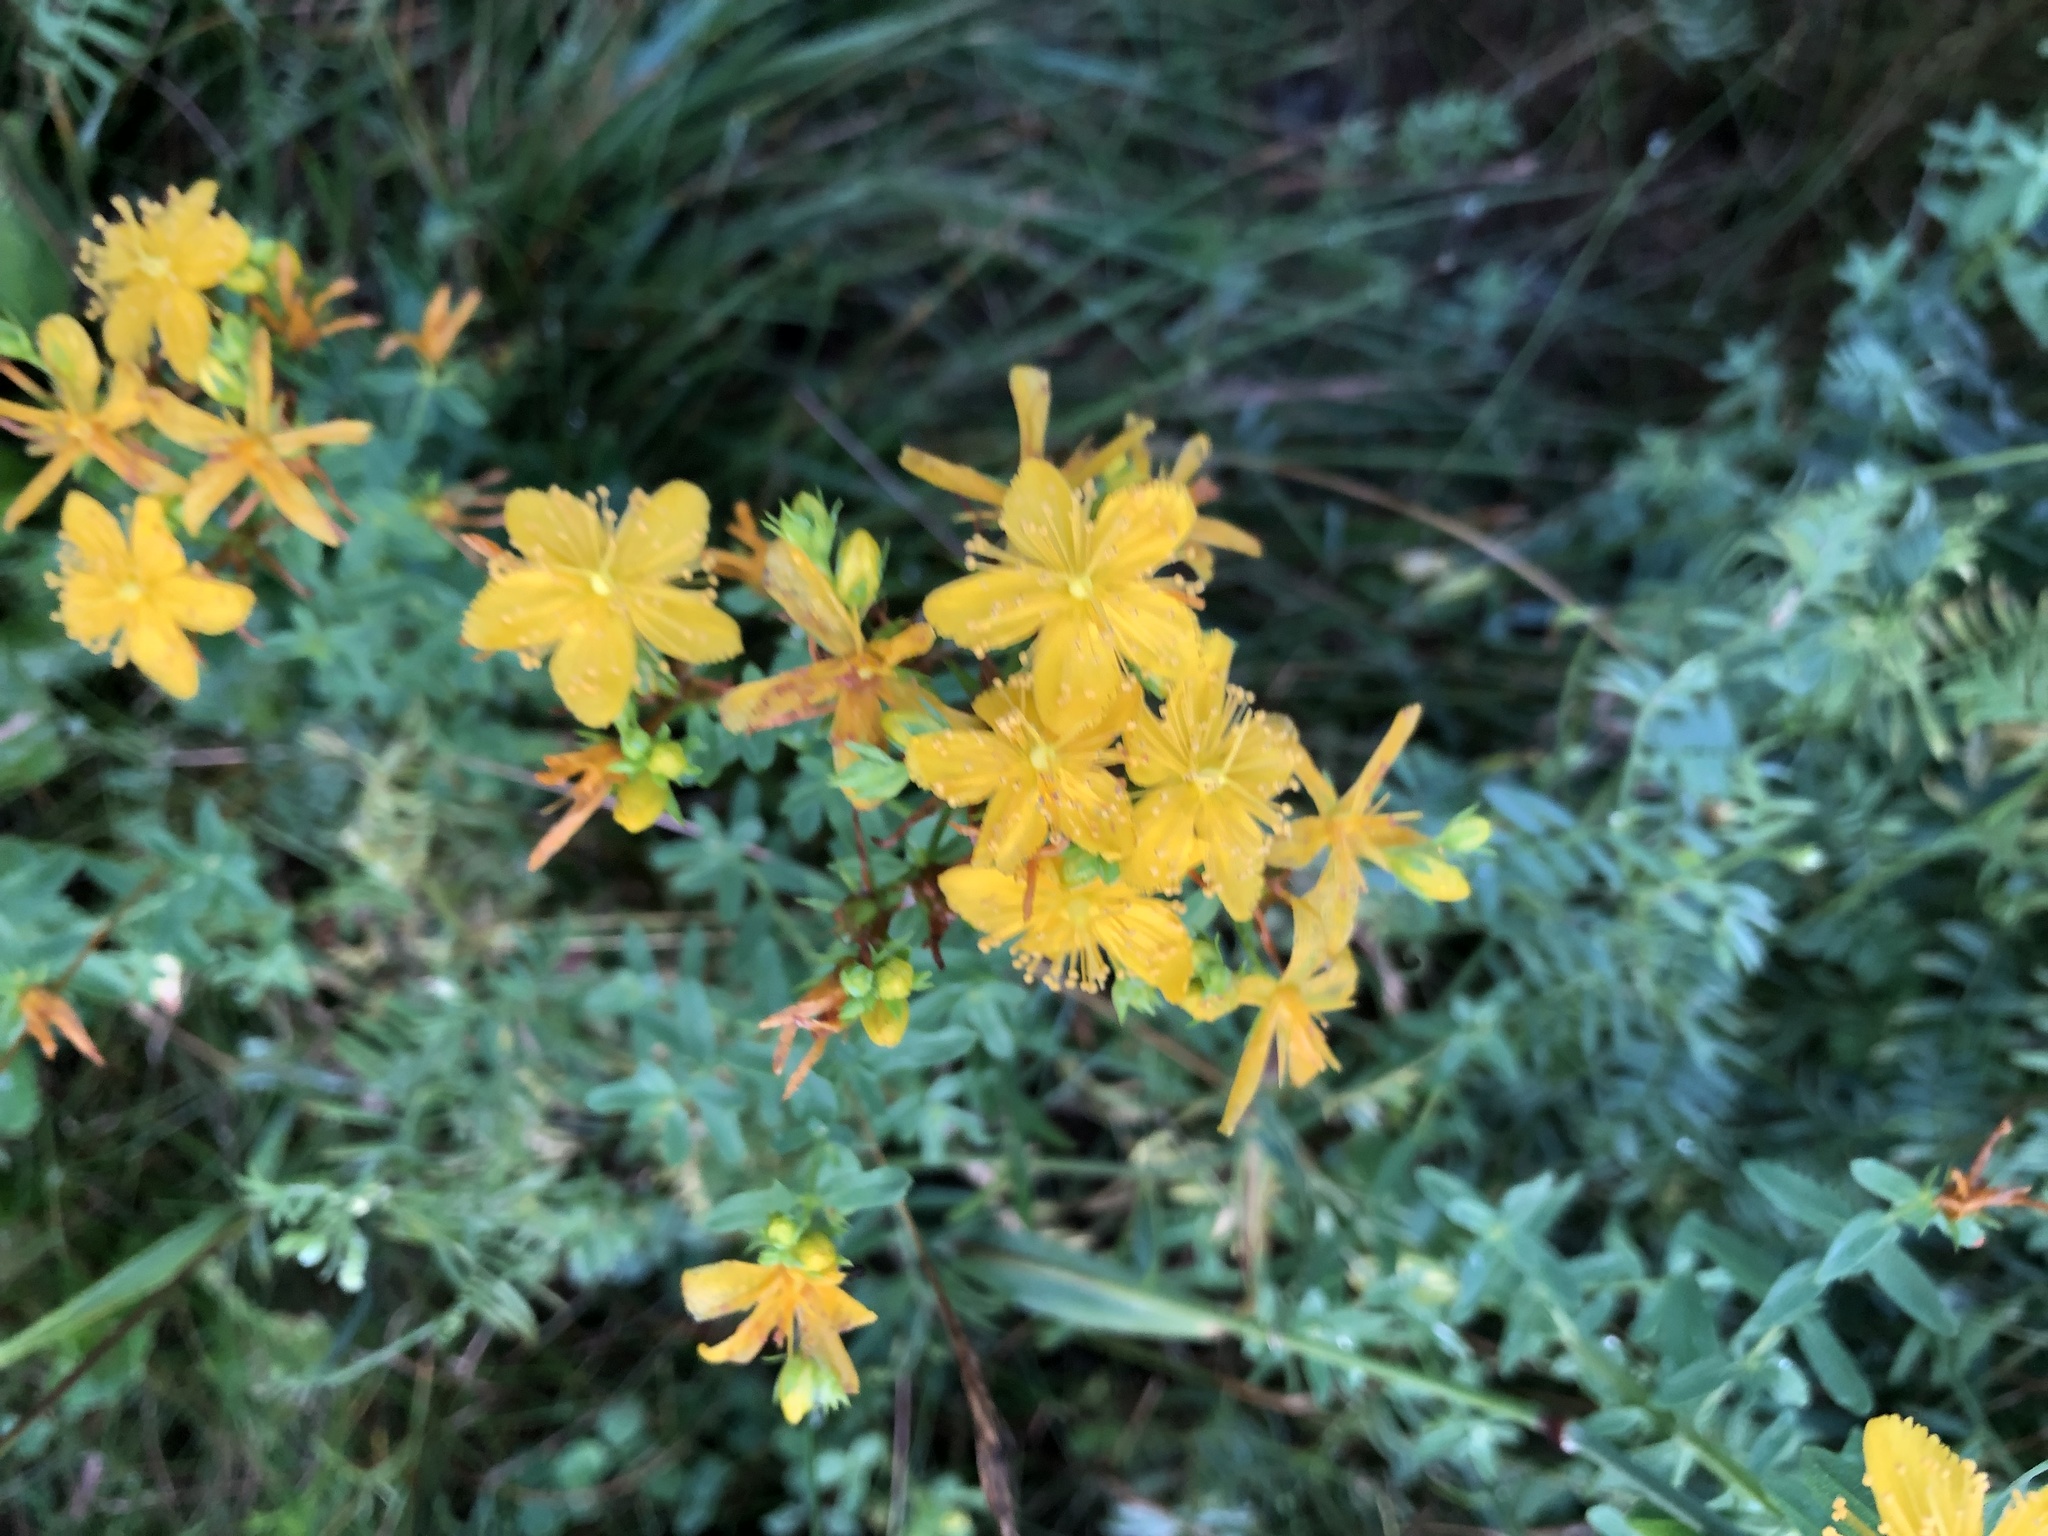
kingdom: Plantae
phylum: Tracheophyta
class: Magnoliopsida
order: Malpighiales
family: Hypericaceae
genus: Hypericum
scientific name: Hypericum perforatum
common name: Common st. johnswort
